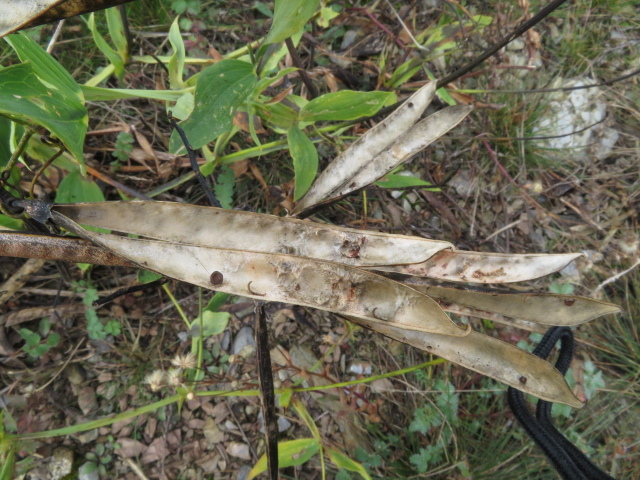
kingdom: Plantae
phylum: Tracheophyta
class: Magnoliopsida
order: Fabales
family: Fabaceae
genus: Lathyrus
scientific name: Lathyrus latifolius
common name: Perennial pea
